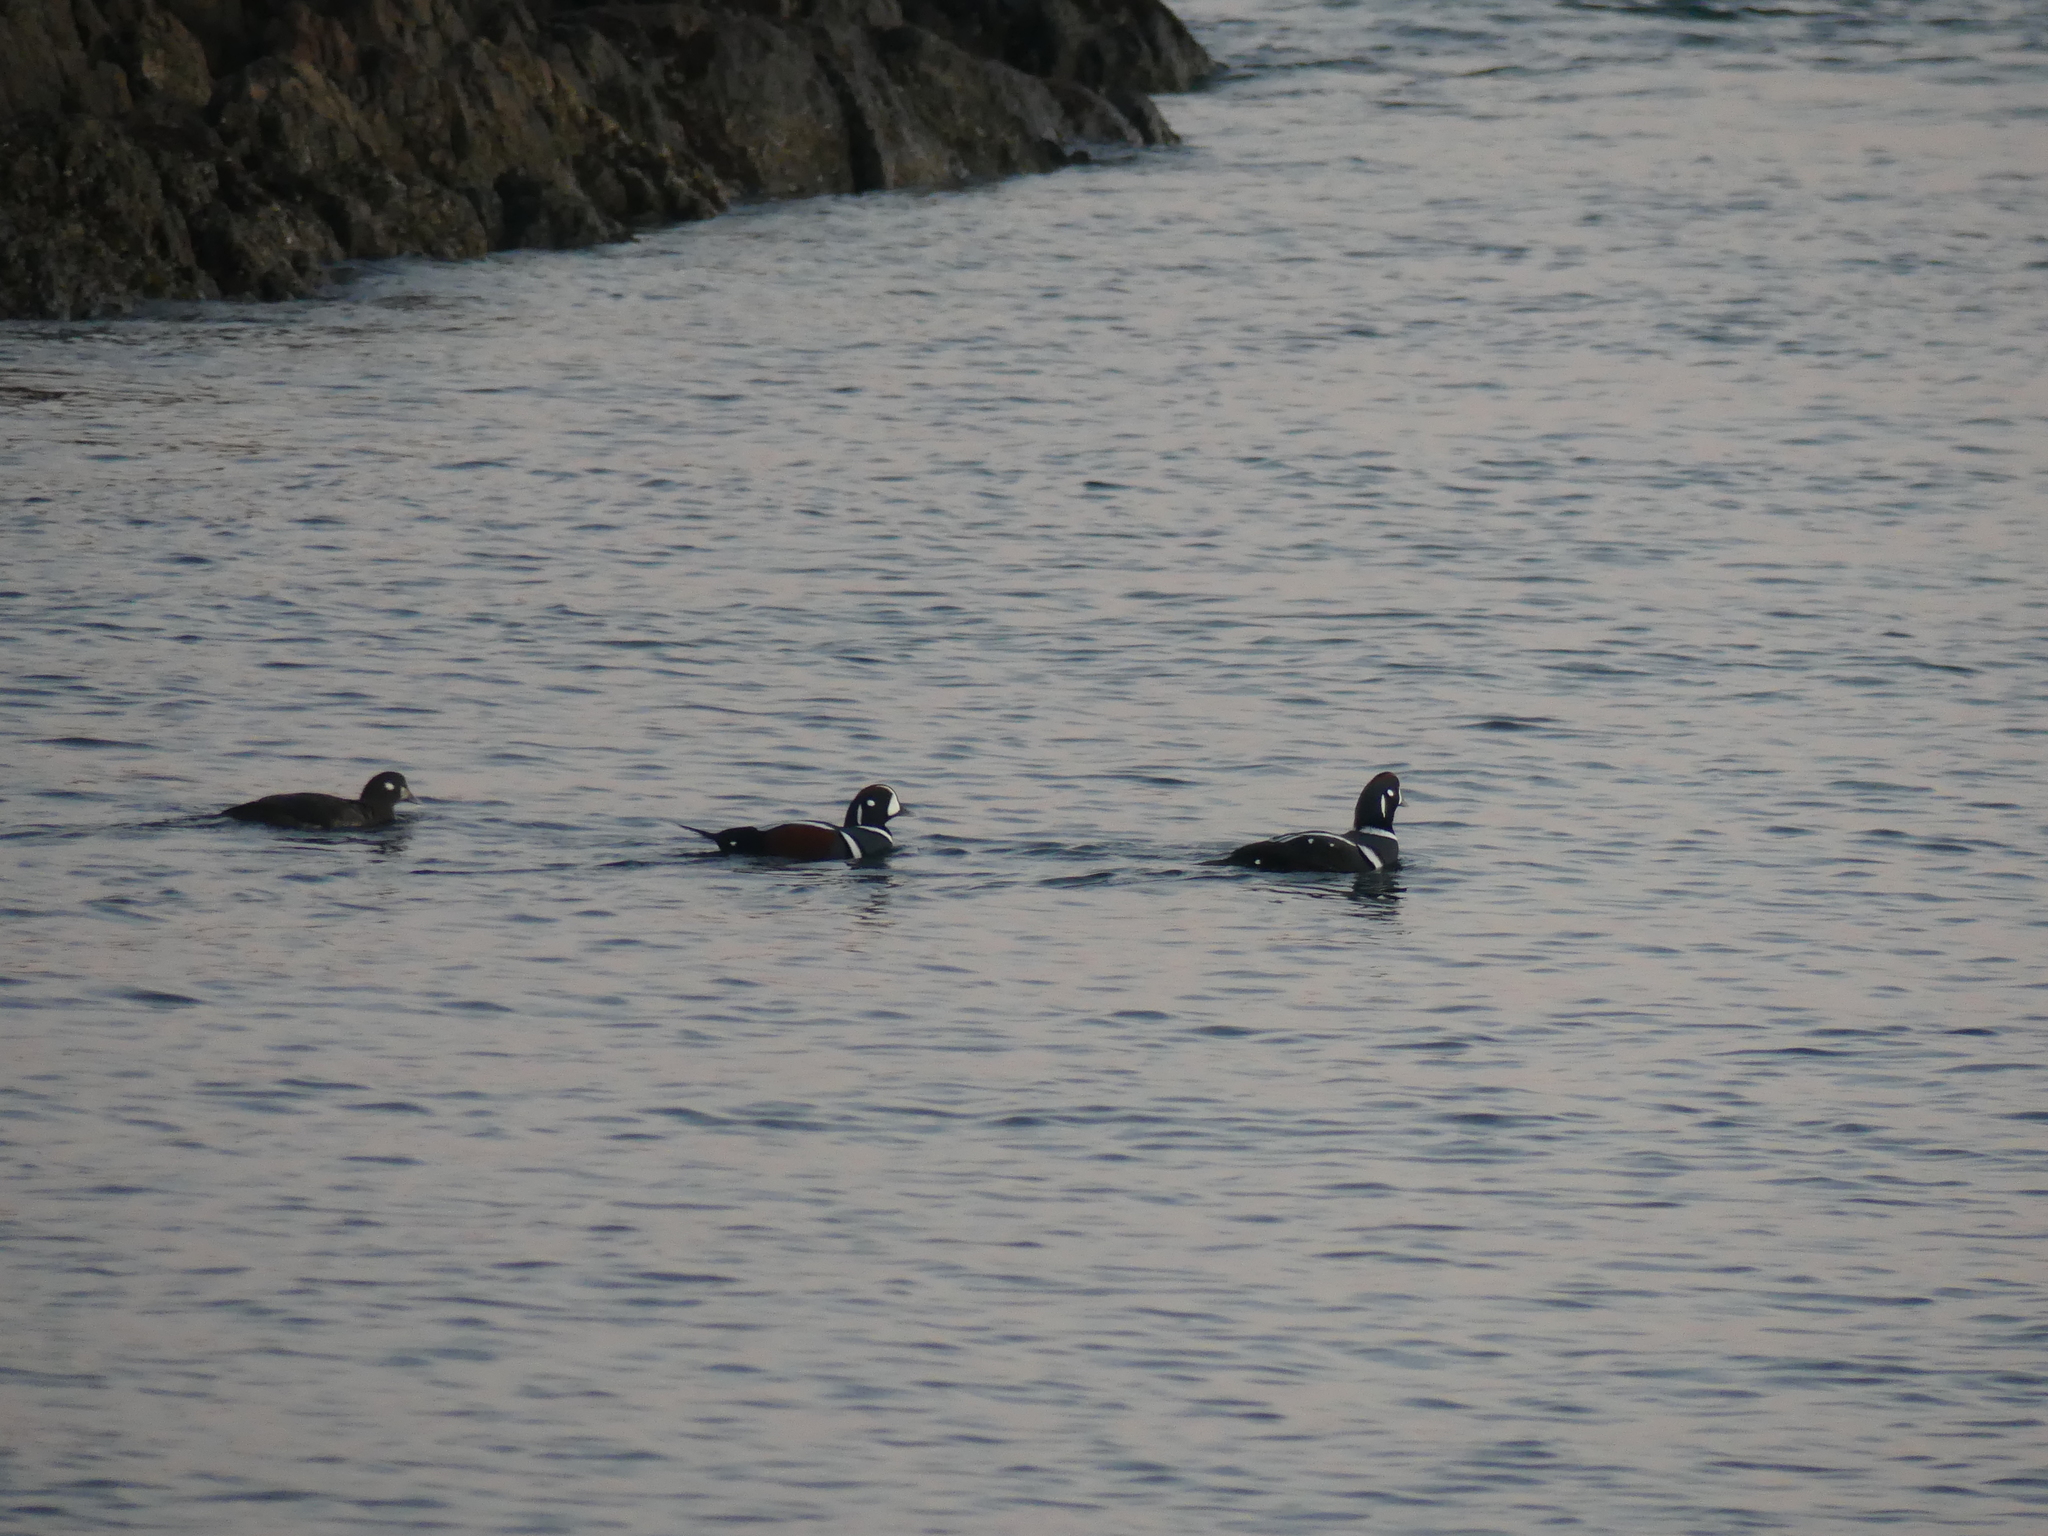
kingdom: Animalia
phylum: Chordata
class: Aves
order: Anseriformes
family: Anatidae
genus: Histrionicus
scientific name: Histrionicus histrionicus
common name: Harlequin duck
